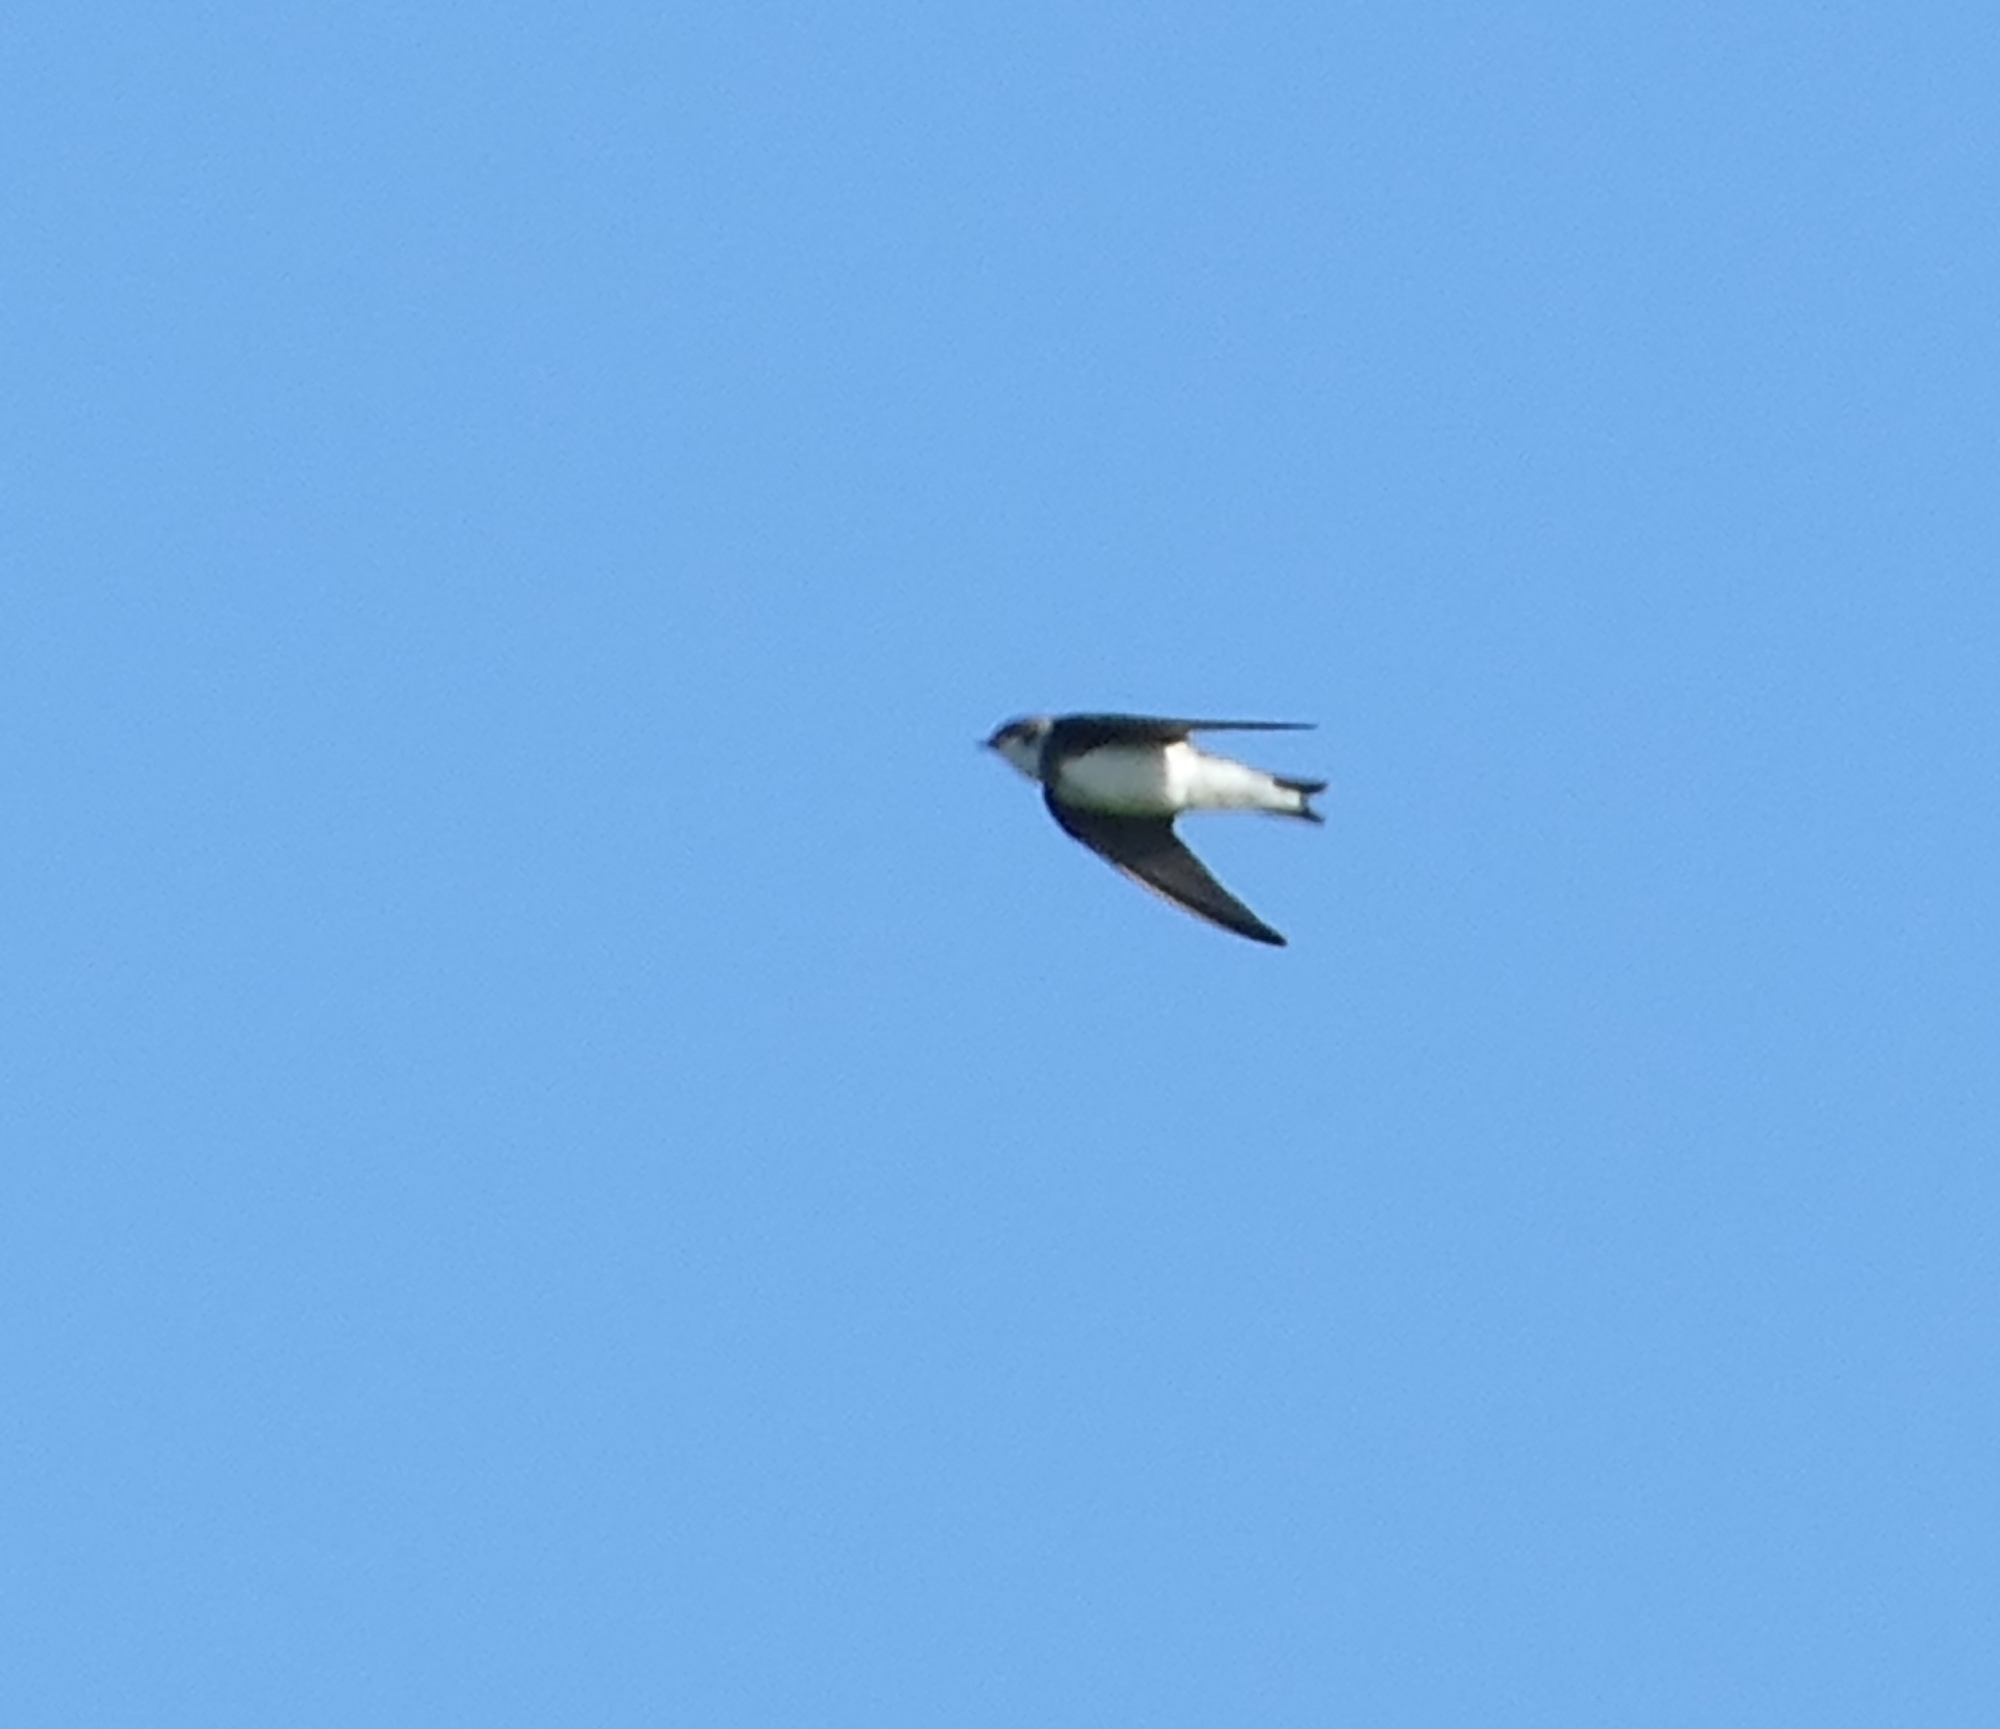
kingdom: Animalia
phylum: Chordata
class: Aves
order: Passeriformes
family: Hirundinidae
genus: Riparia
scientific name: Riparia riparia
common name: Sand martin
